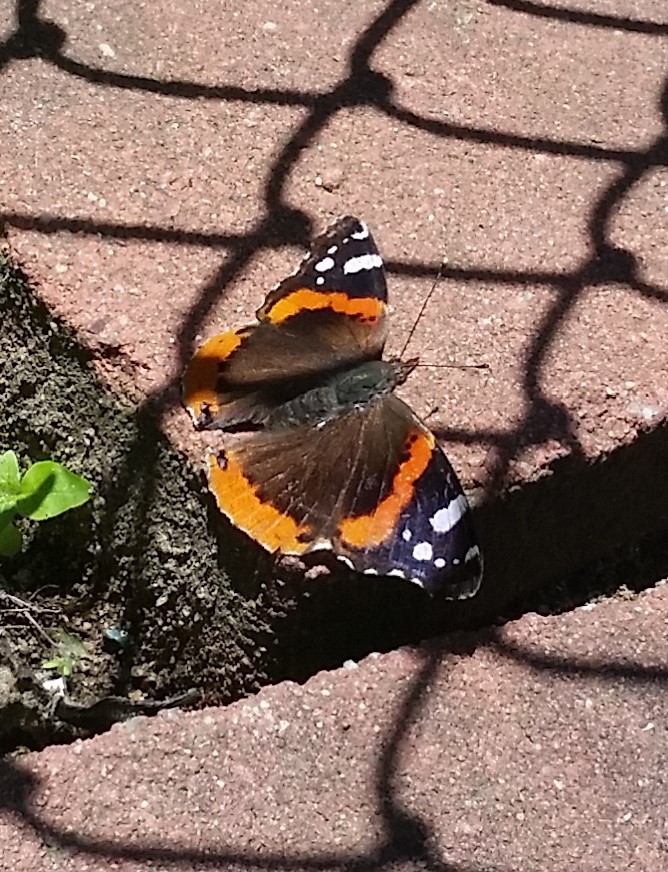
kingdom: Animalia
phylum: Arthropoda
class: Insecta
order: Lepidoptera
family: Nymphalidae
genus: Vanessa
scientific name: Vanessa atalanta
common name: Red admiral
